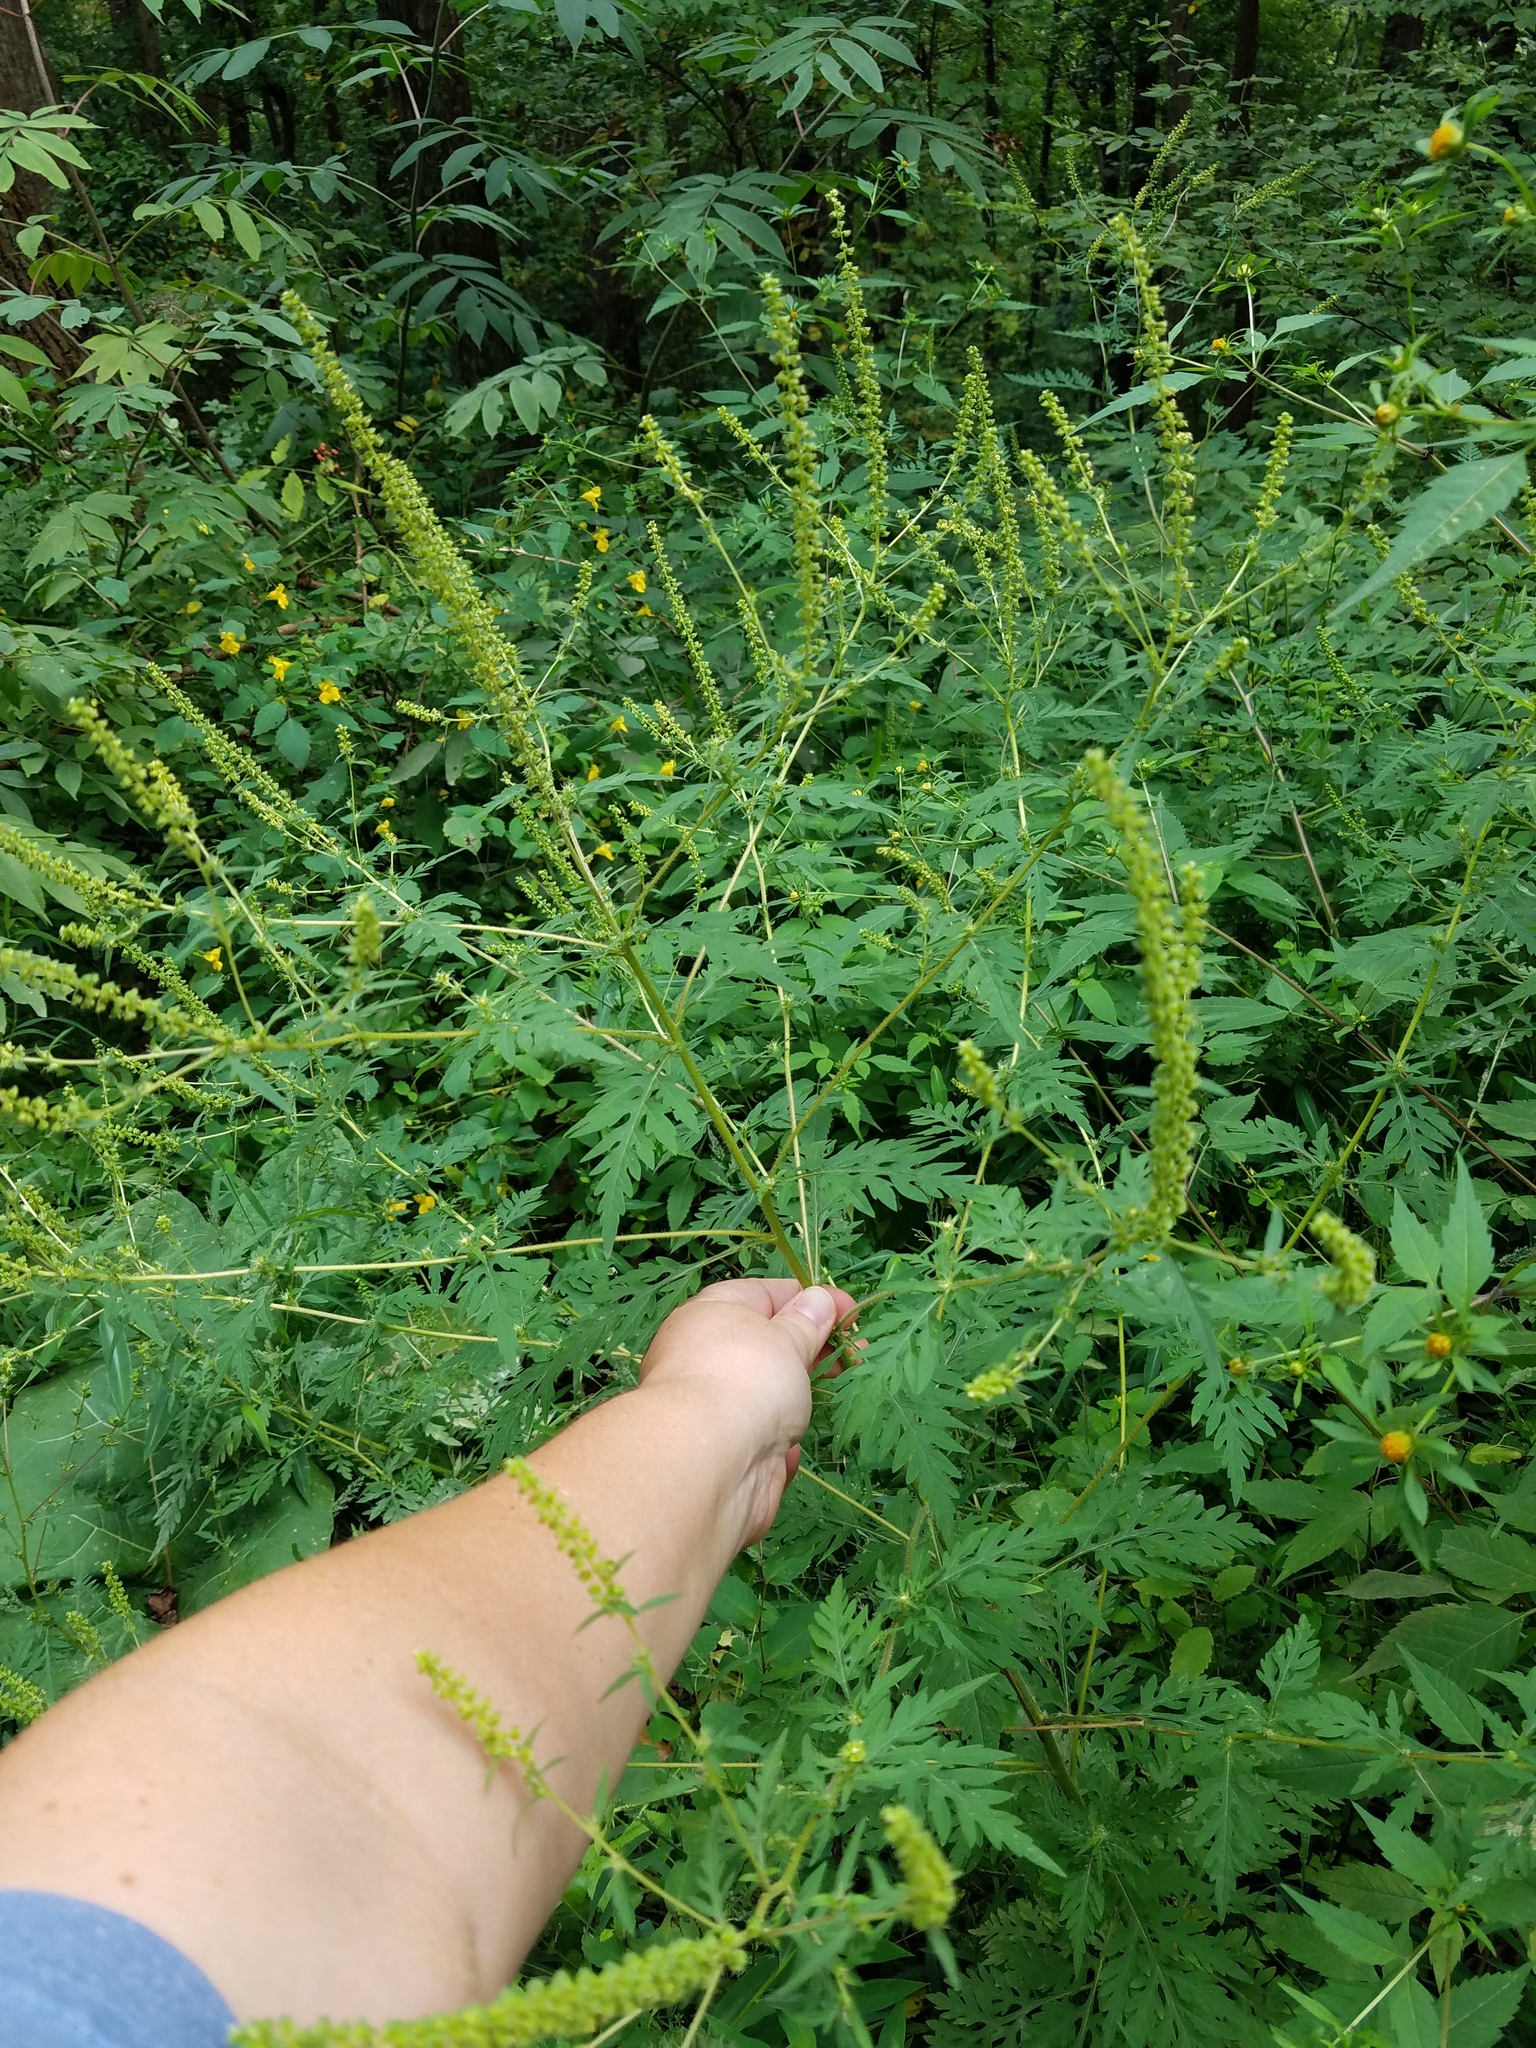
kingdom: Plantae
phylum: Tracheophyta
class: Magnoliopsida
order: Asterales
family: Asteraceae
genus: Ambrosia
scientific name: Ambrosia artemisiifolia
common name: Annual ragweed
